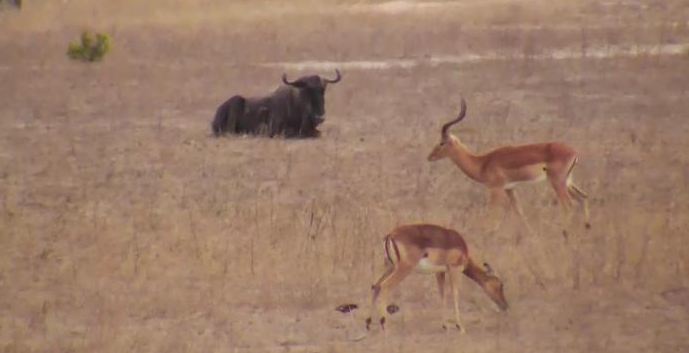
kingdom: Animalia
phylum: Chordata
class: Mammalia
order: Artiodactyla
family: Bovidae
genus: Aepyceros
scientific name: Aepyceros melampus
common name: Impala
